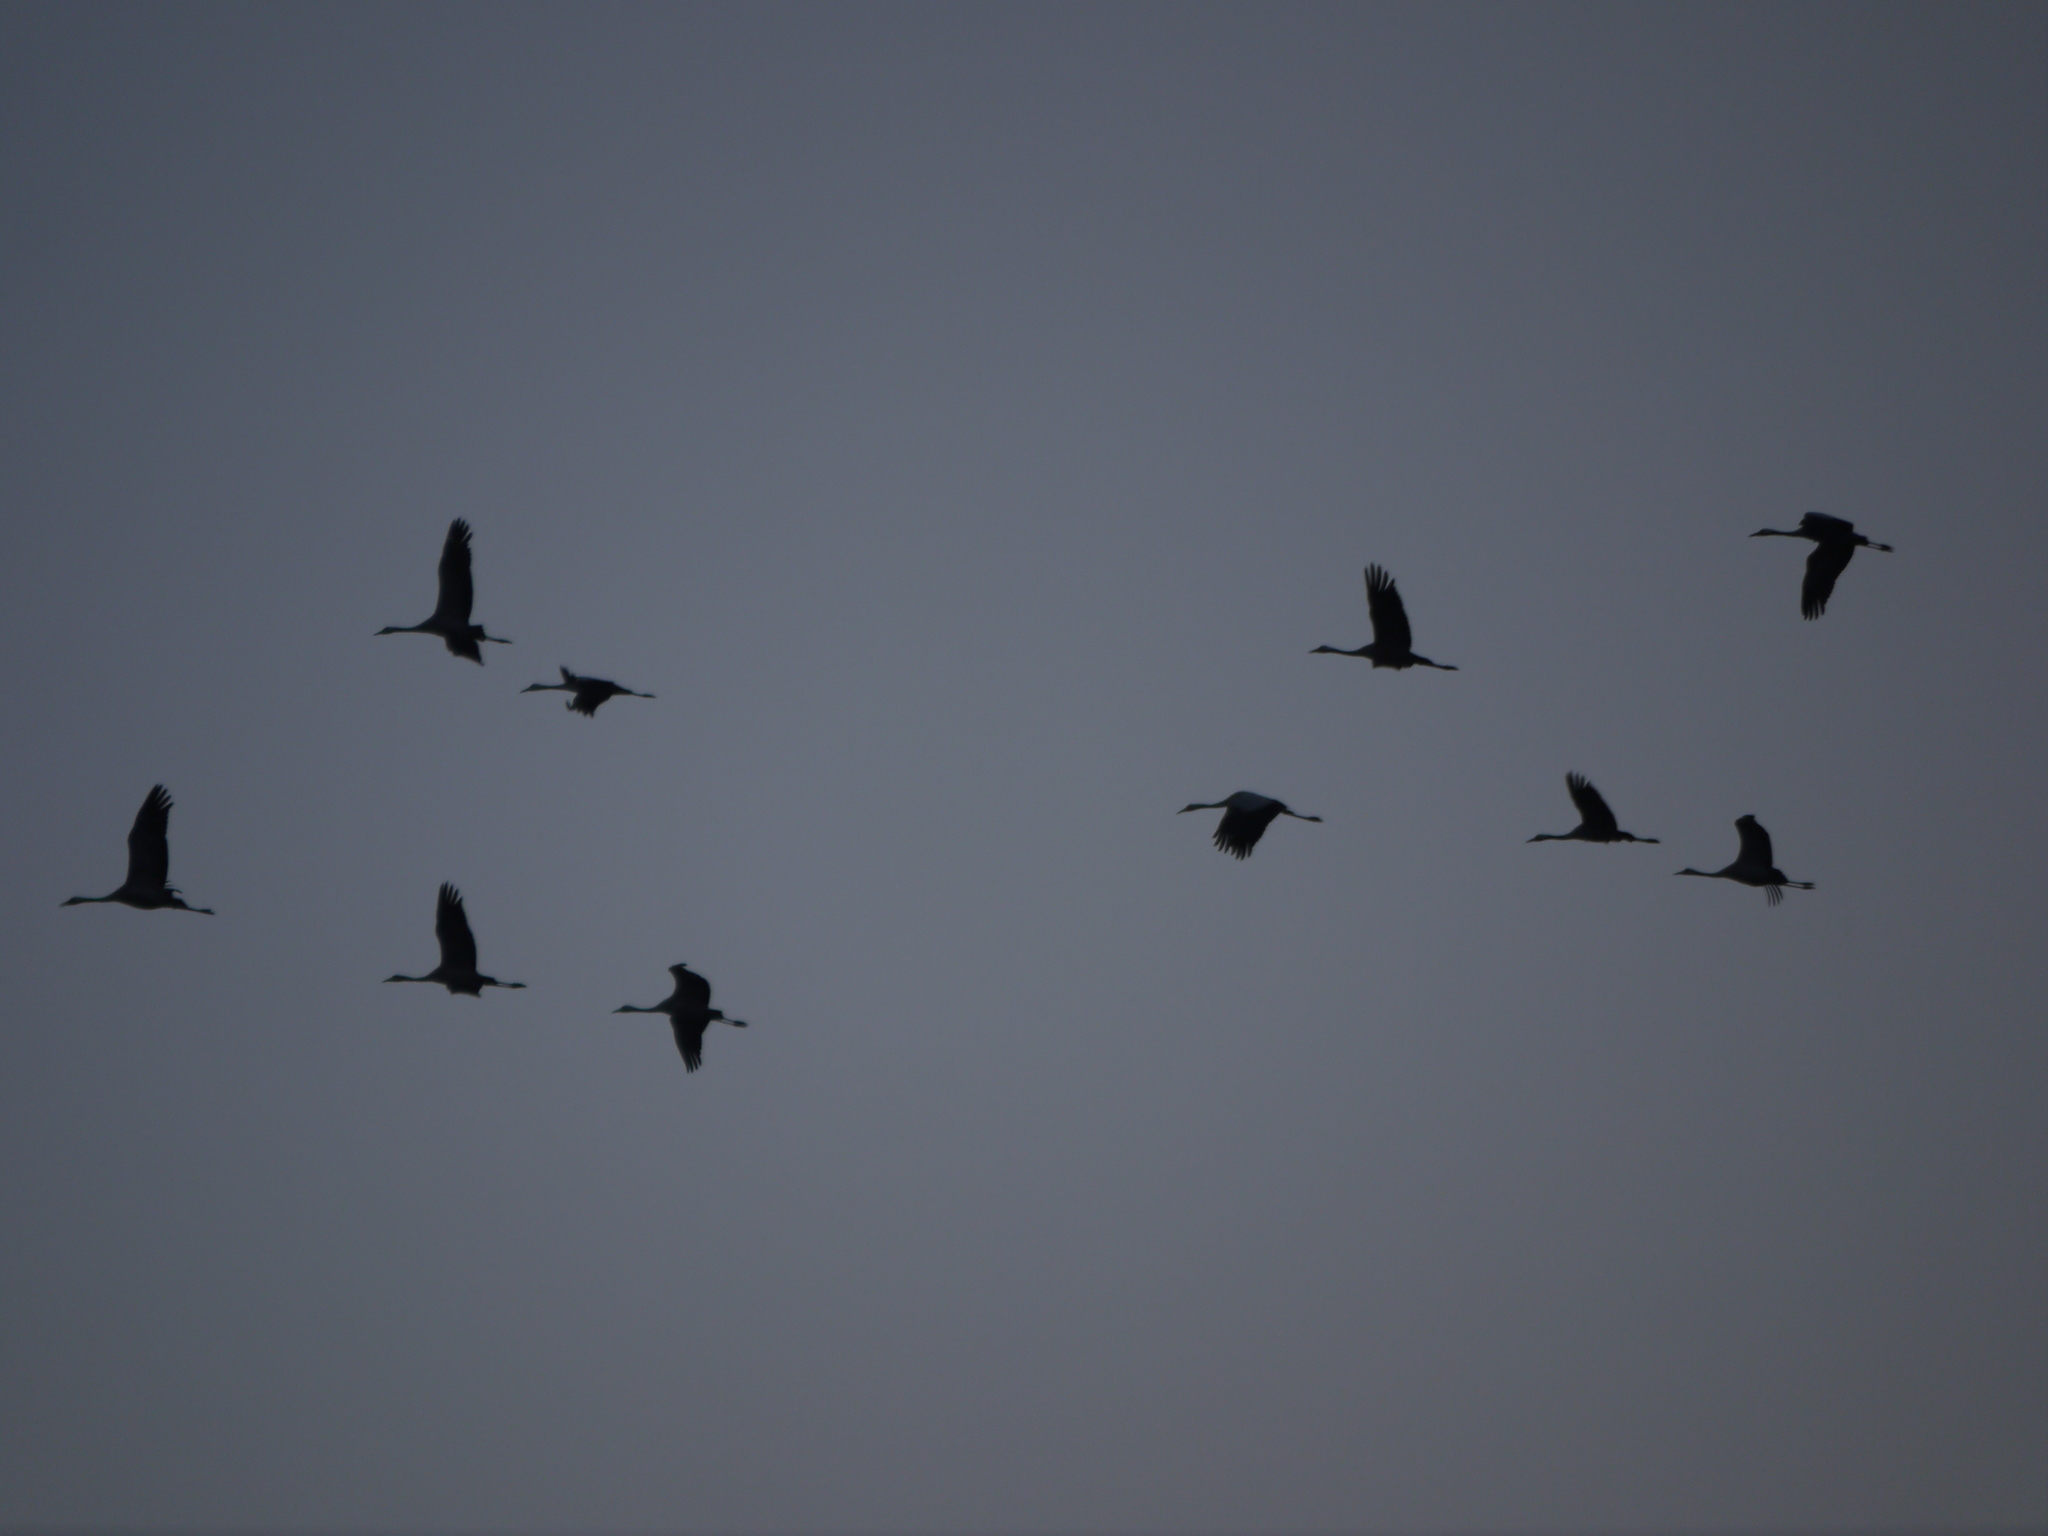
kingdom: Animalia
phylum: Chordata
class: Aves
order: Gruiformes
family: Gruidae
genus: Grus
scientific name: Grus grus
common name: Common crane
